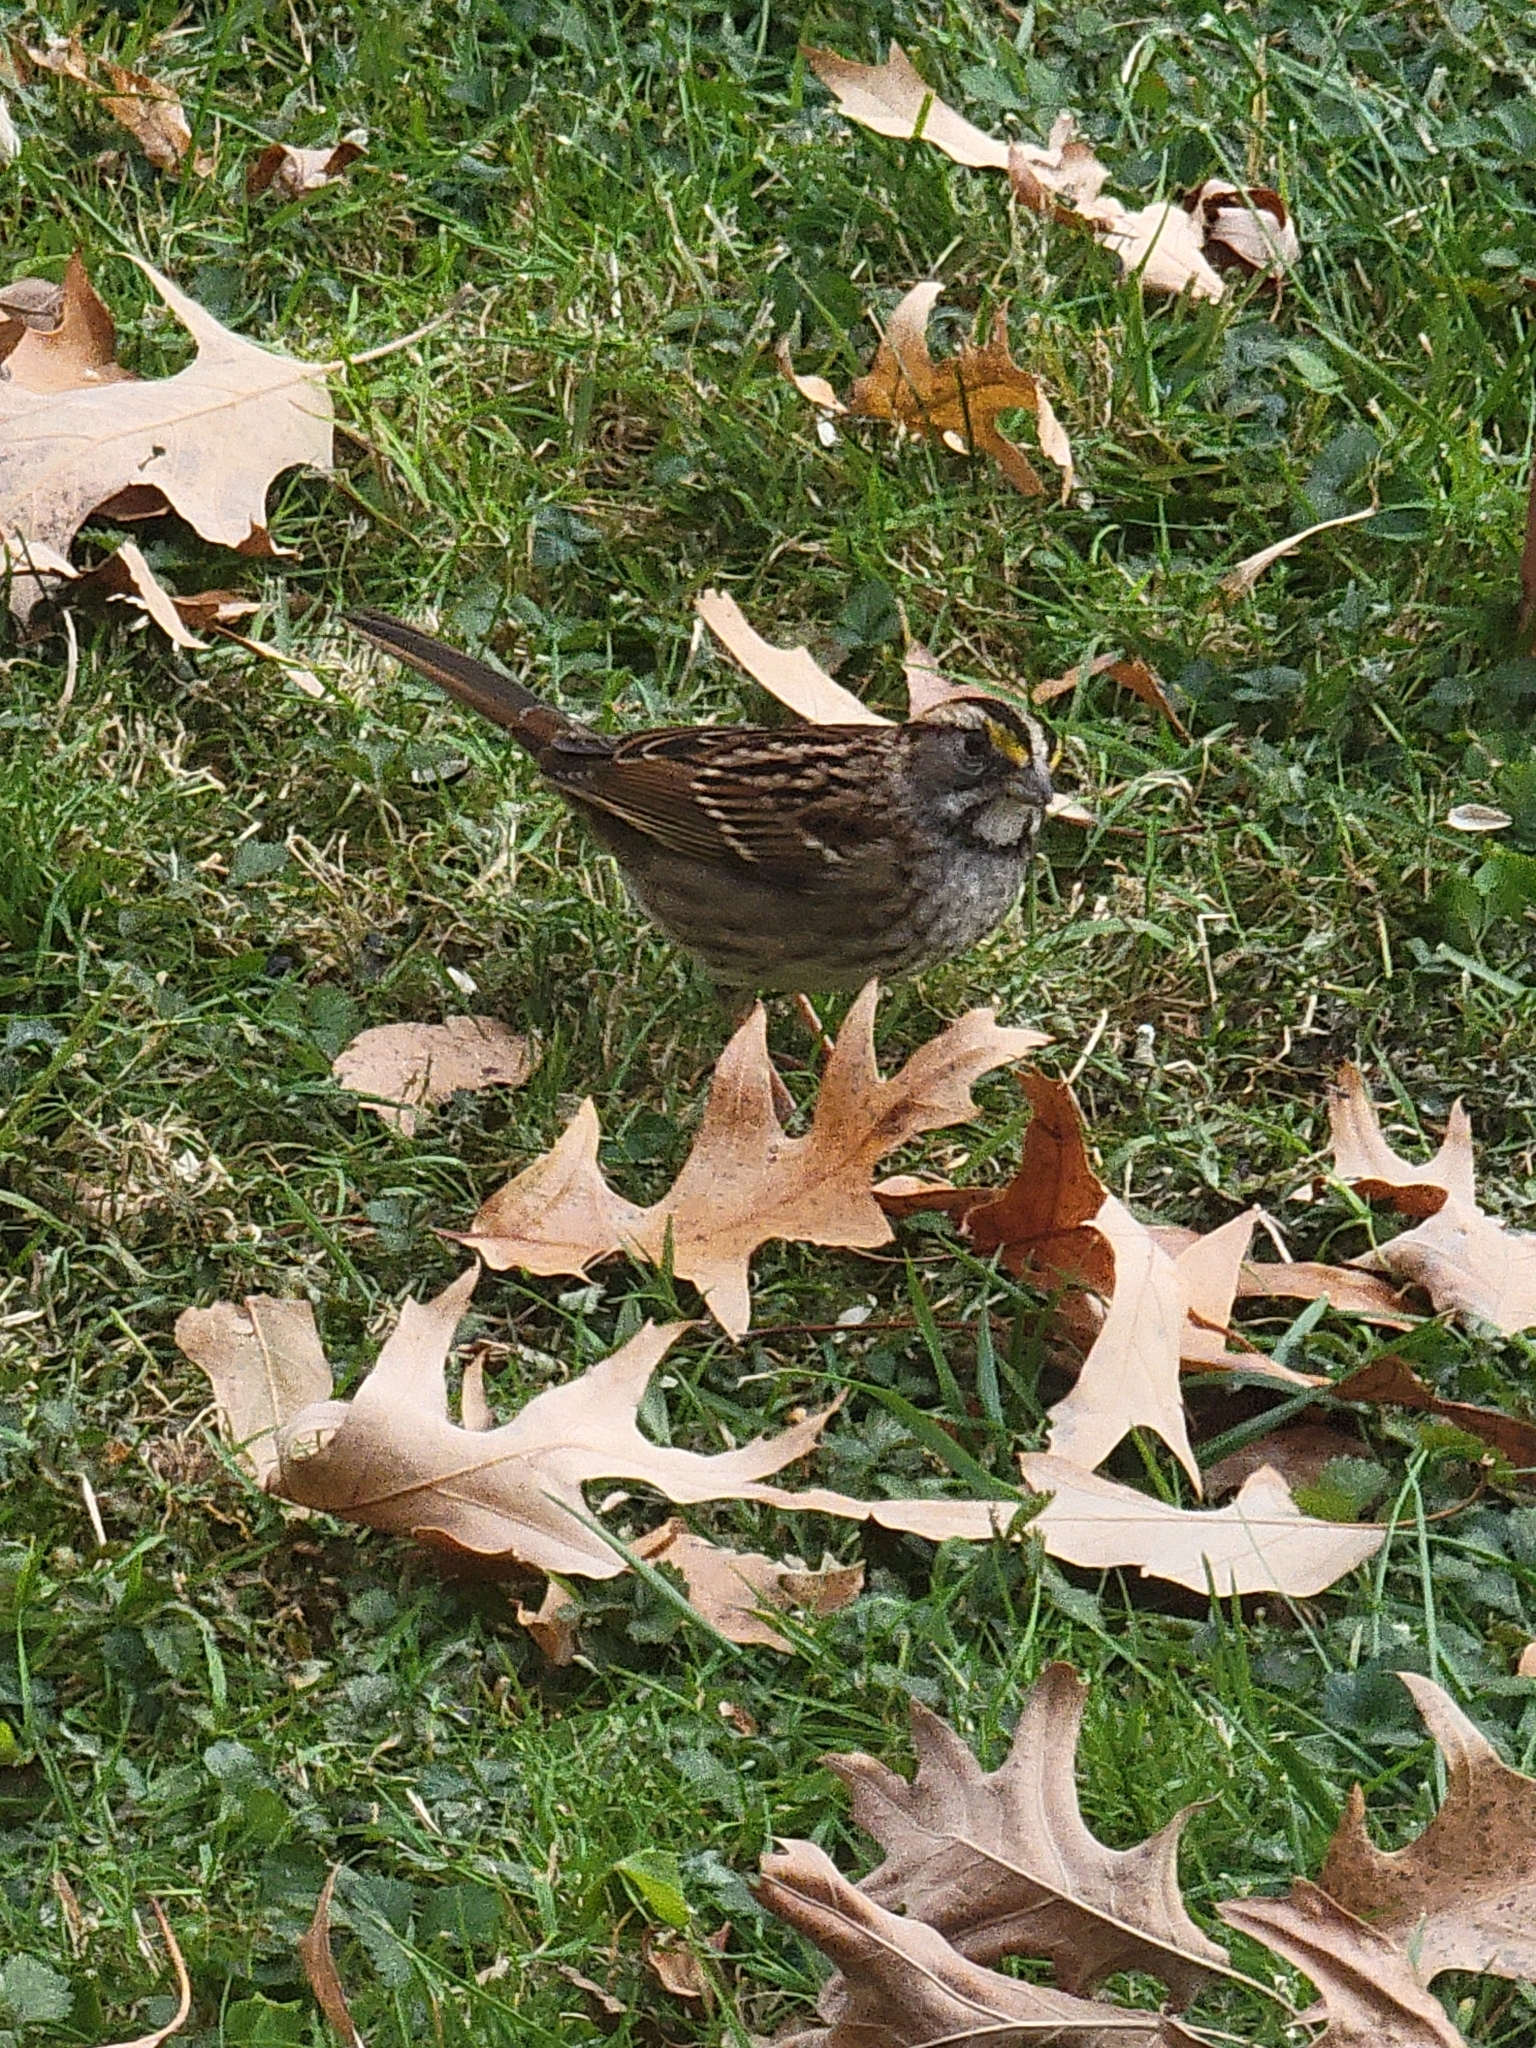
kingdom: Animalia
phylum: Chordata
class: Aves
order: Passeriformes
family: Passerellidae
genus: Zonotrichia
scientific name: Zonotrichia albicollis
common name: White-throated sparrow
